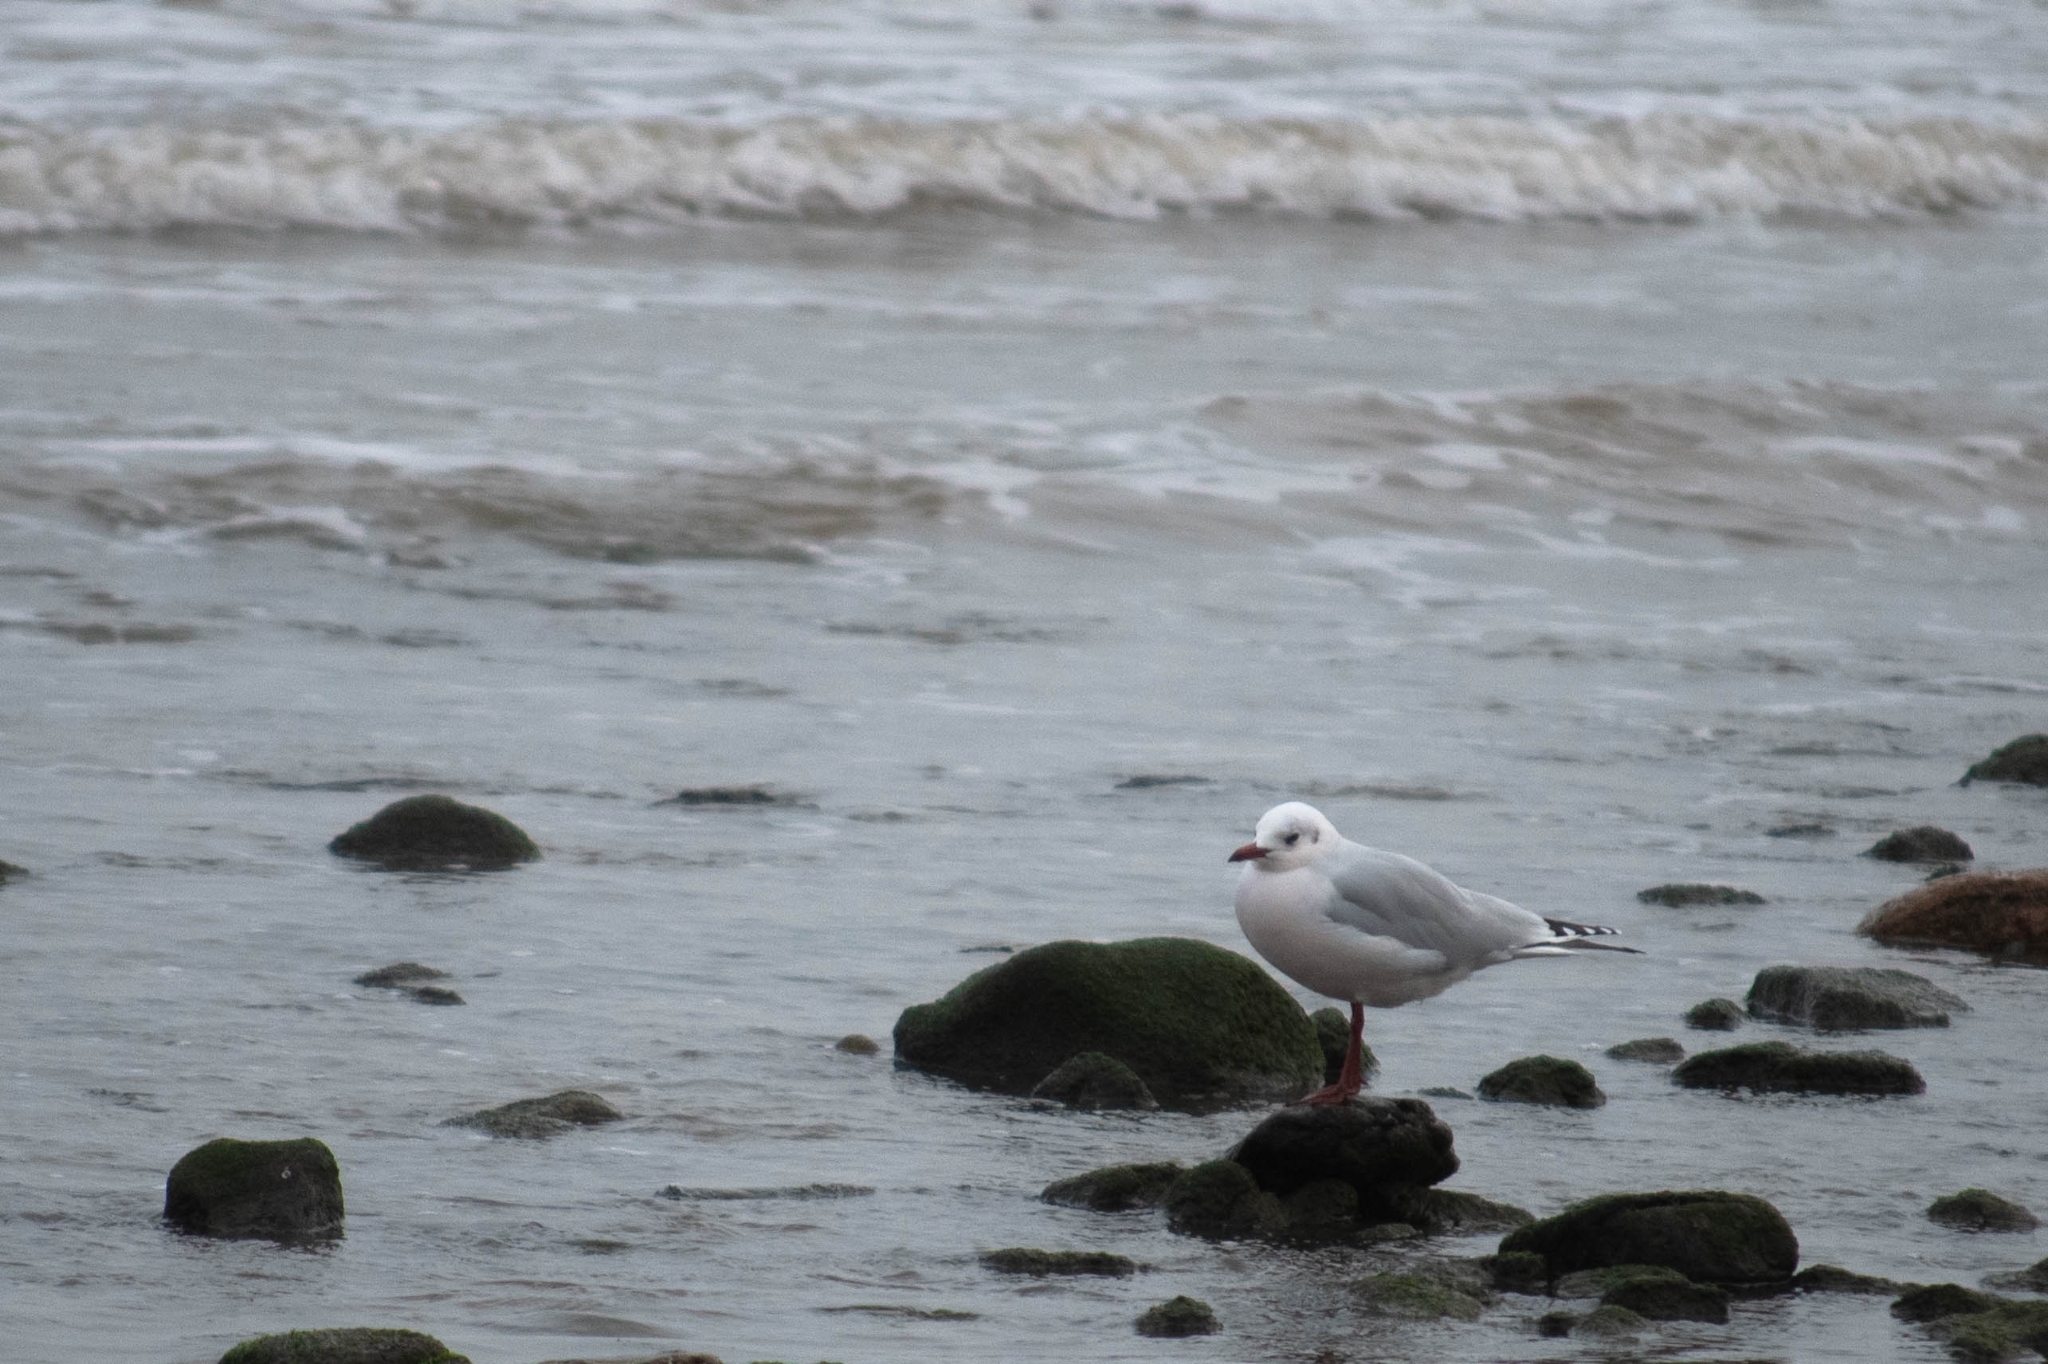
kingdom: Animalia
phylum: Chordata
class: Aves
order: Charadriiformes
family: Laridae
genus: Chroicocephalus
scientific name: Chroicocephalus maculipennis
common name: Brown-hooded gull
